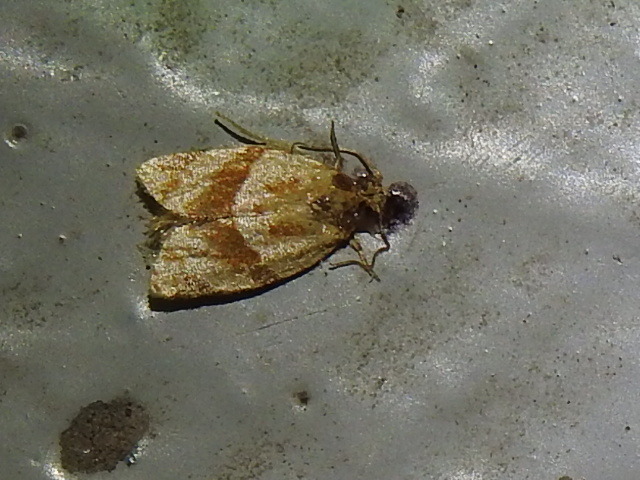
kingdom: Animalia
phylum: Arthropoda
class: Insecta
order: Lepidoptera
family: Tortricidae
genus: Clepsis
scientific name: Clepsis peritana
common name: Garden tortrix
